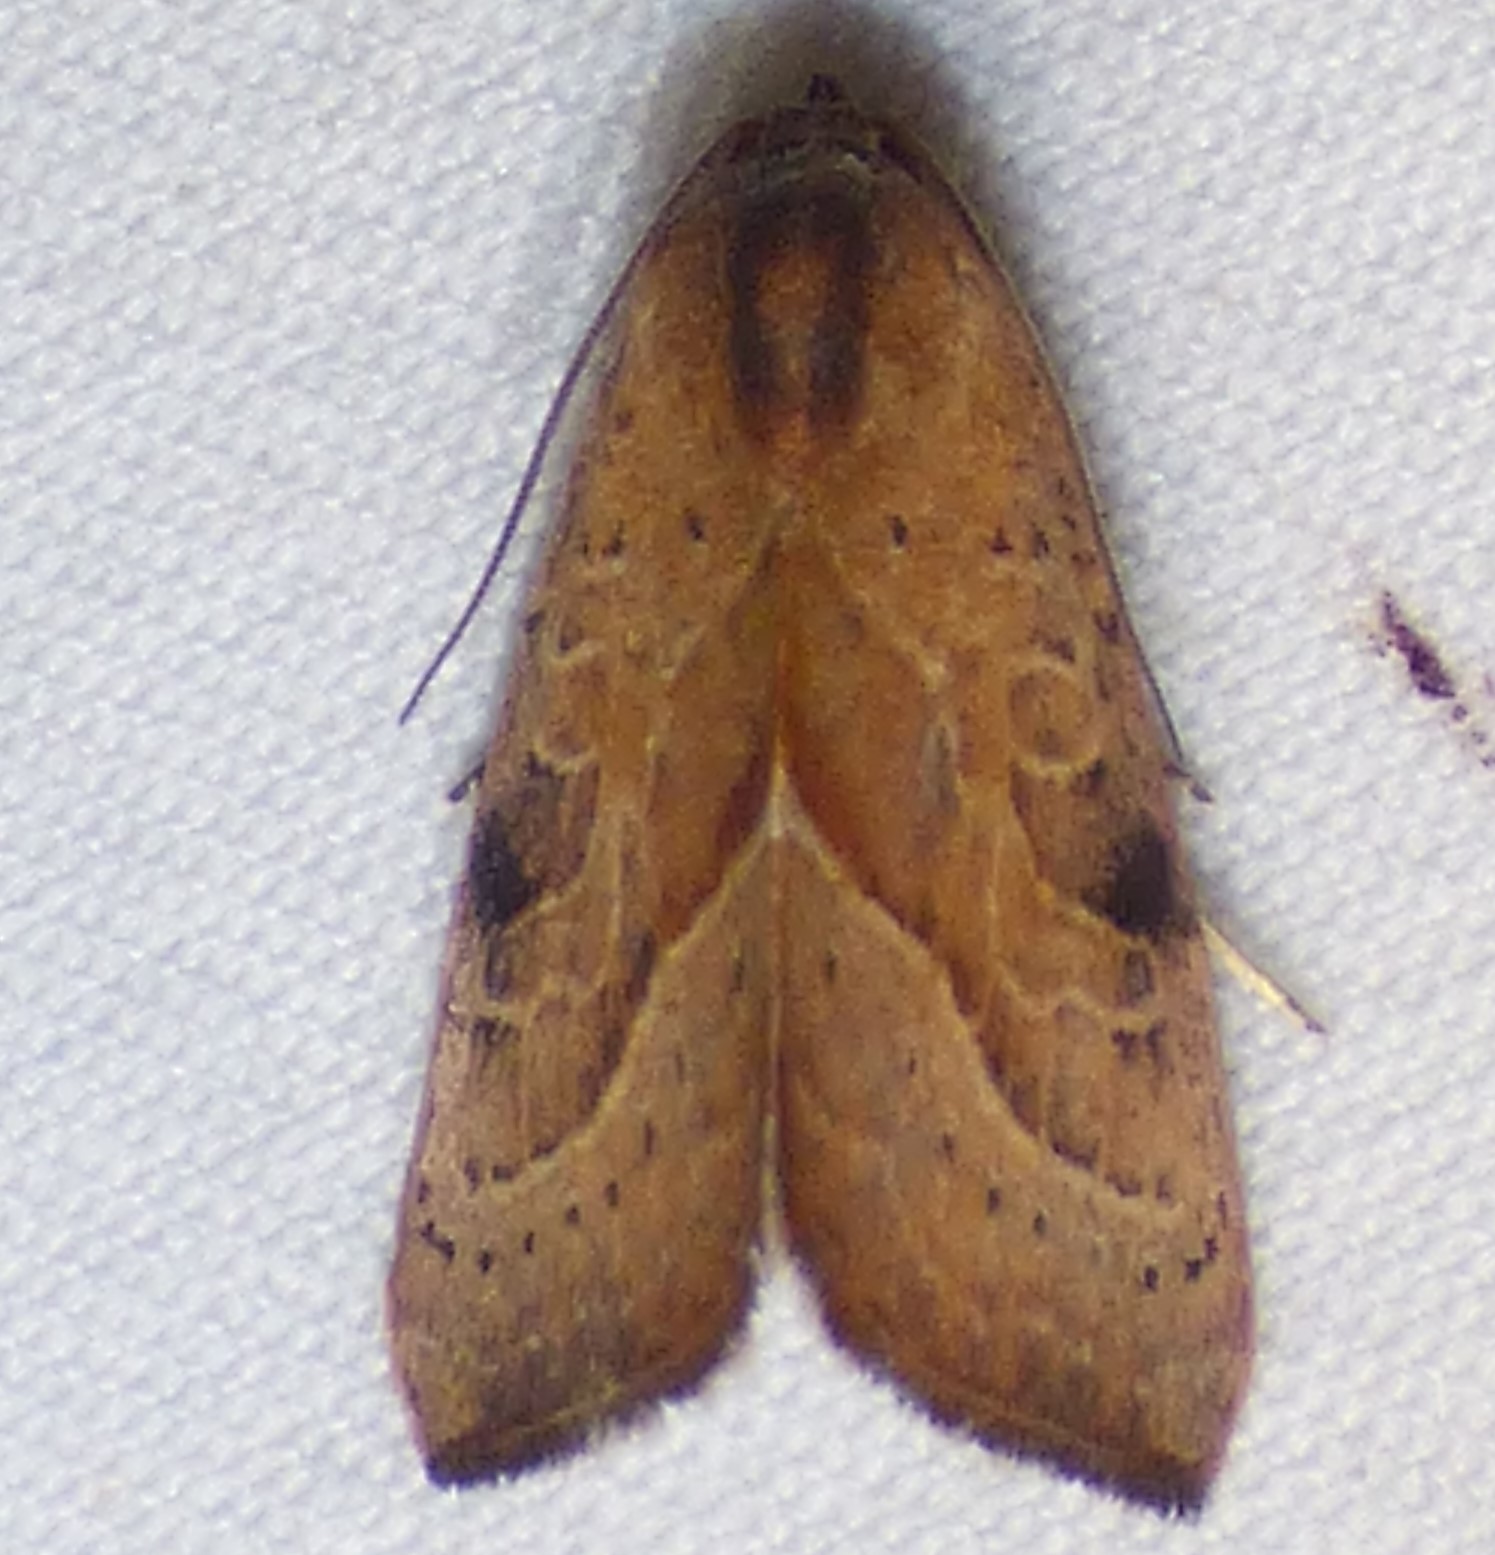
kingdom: Animalia
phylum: Arthropoda
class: Insecta
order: Lepidoptera
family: Noctuidae
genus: Galgula
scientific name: Galgula partita
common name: Wedgeling
